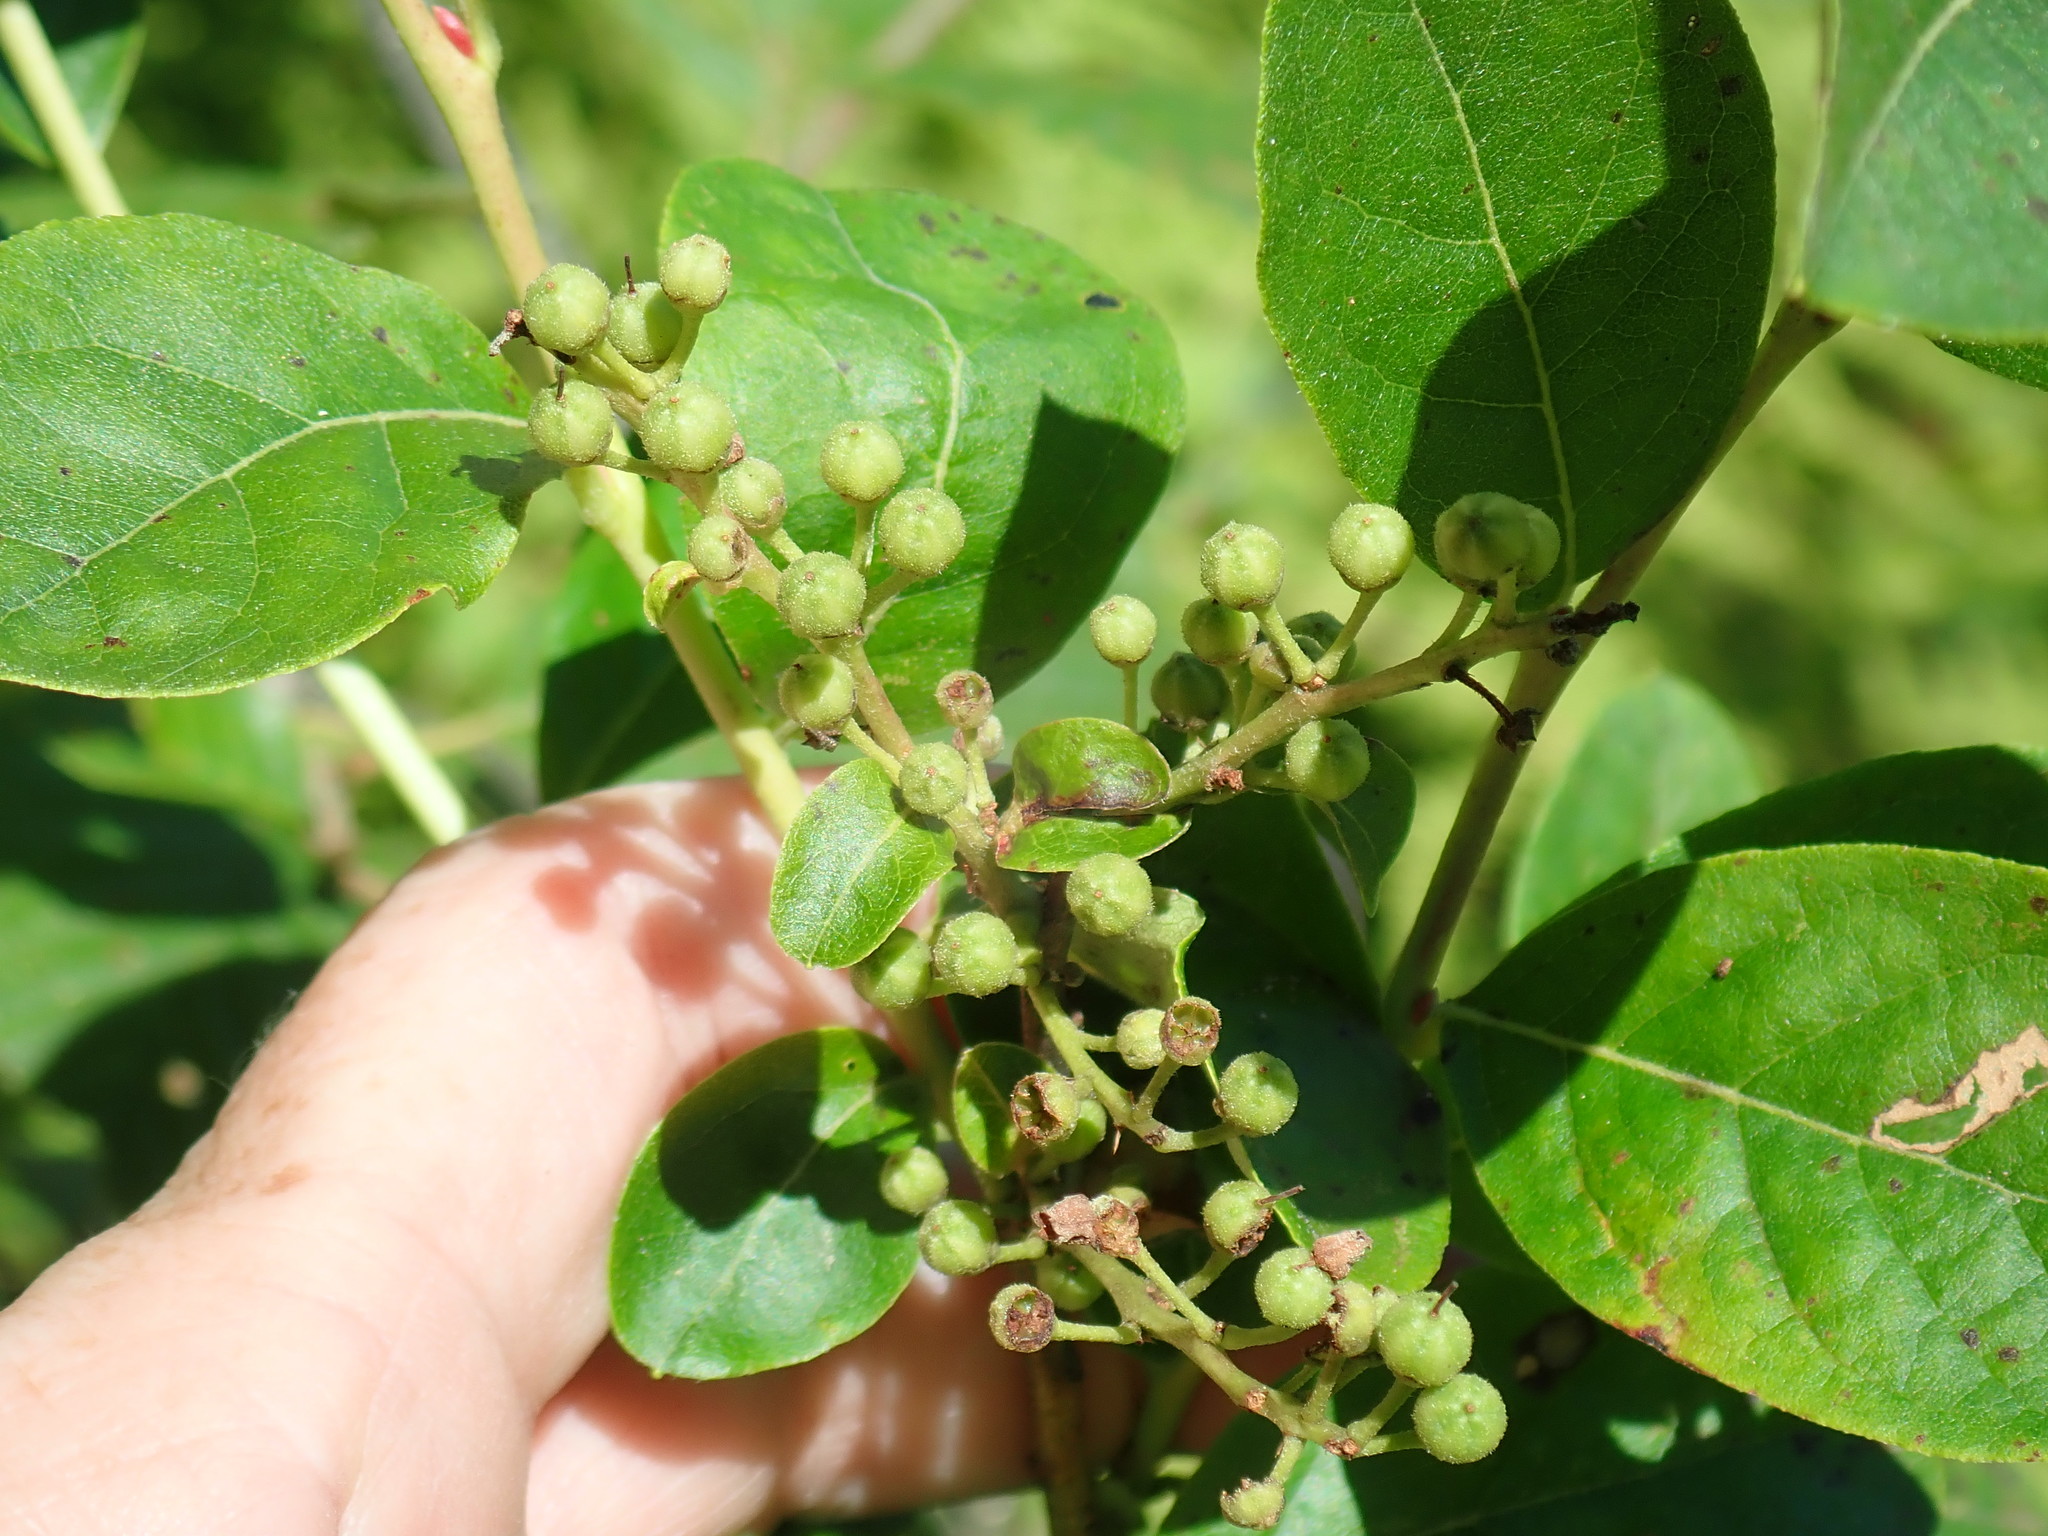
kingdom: Plantae
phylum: Tracheophyta
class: Magnoliopsida
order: Ericales
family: Ericaceae
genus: Lyonia
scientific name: Lyonia ligustrina
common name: Maleberry
